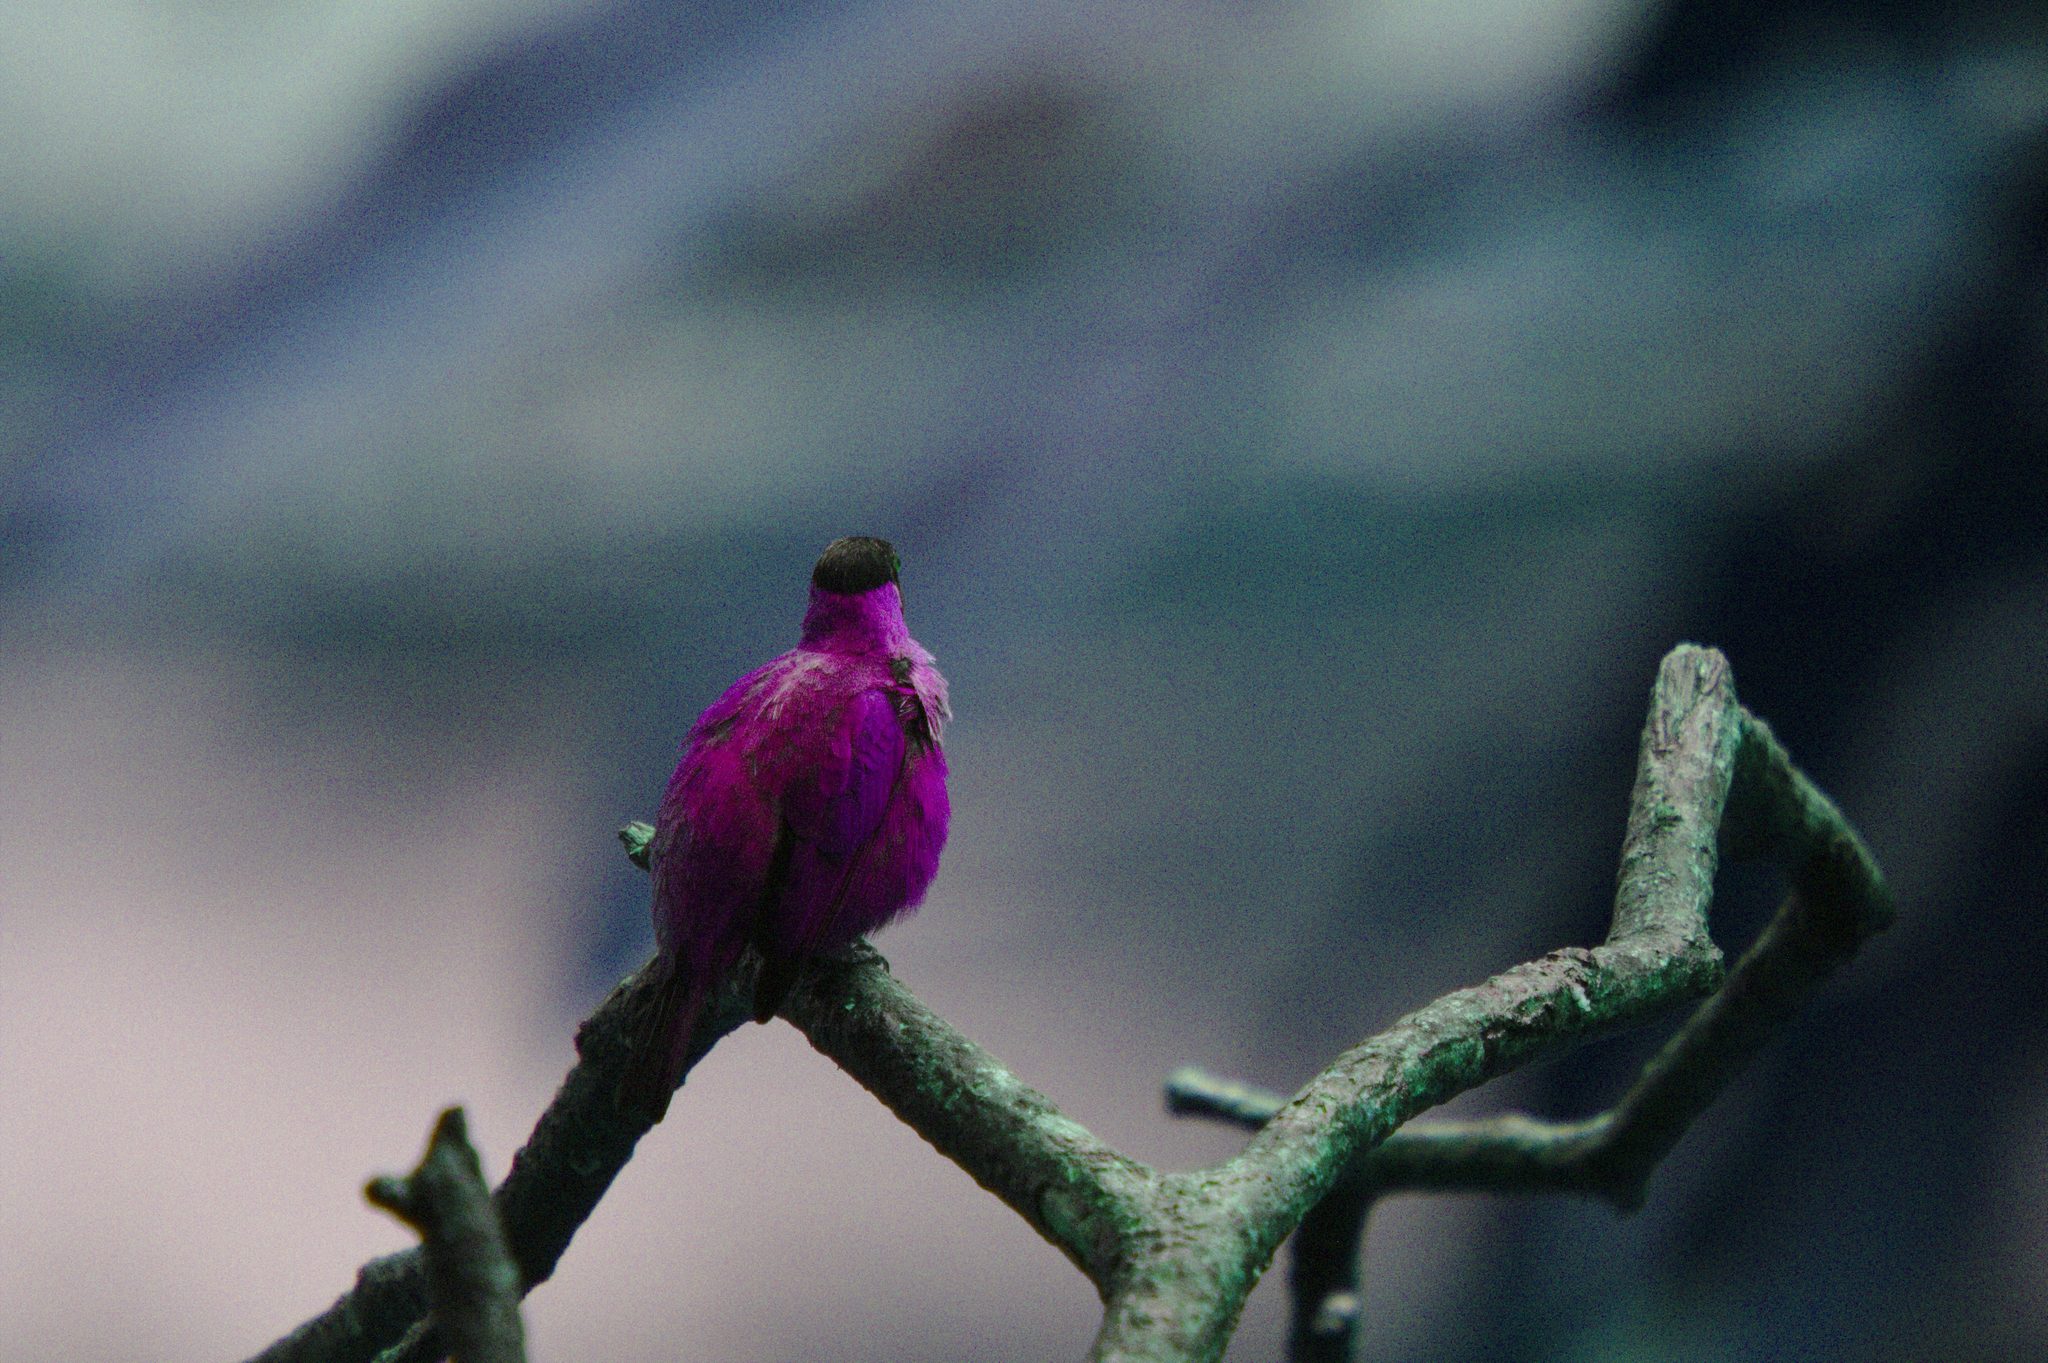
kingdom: Animalia
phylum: Chordata
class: Aves
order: Passeriformes
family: Thraupidae
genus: Chlorophanes
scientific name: Chlorophanes spiza
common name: Green honeycreeper
